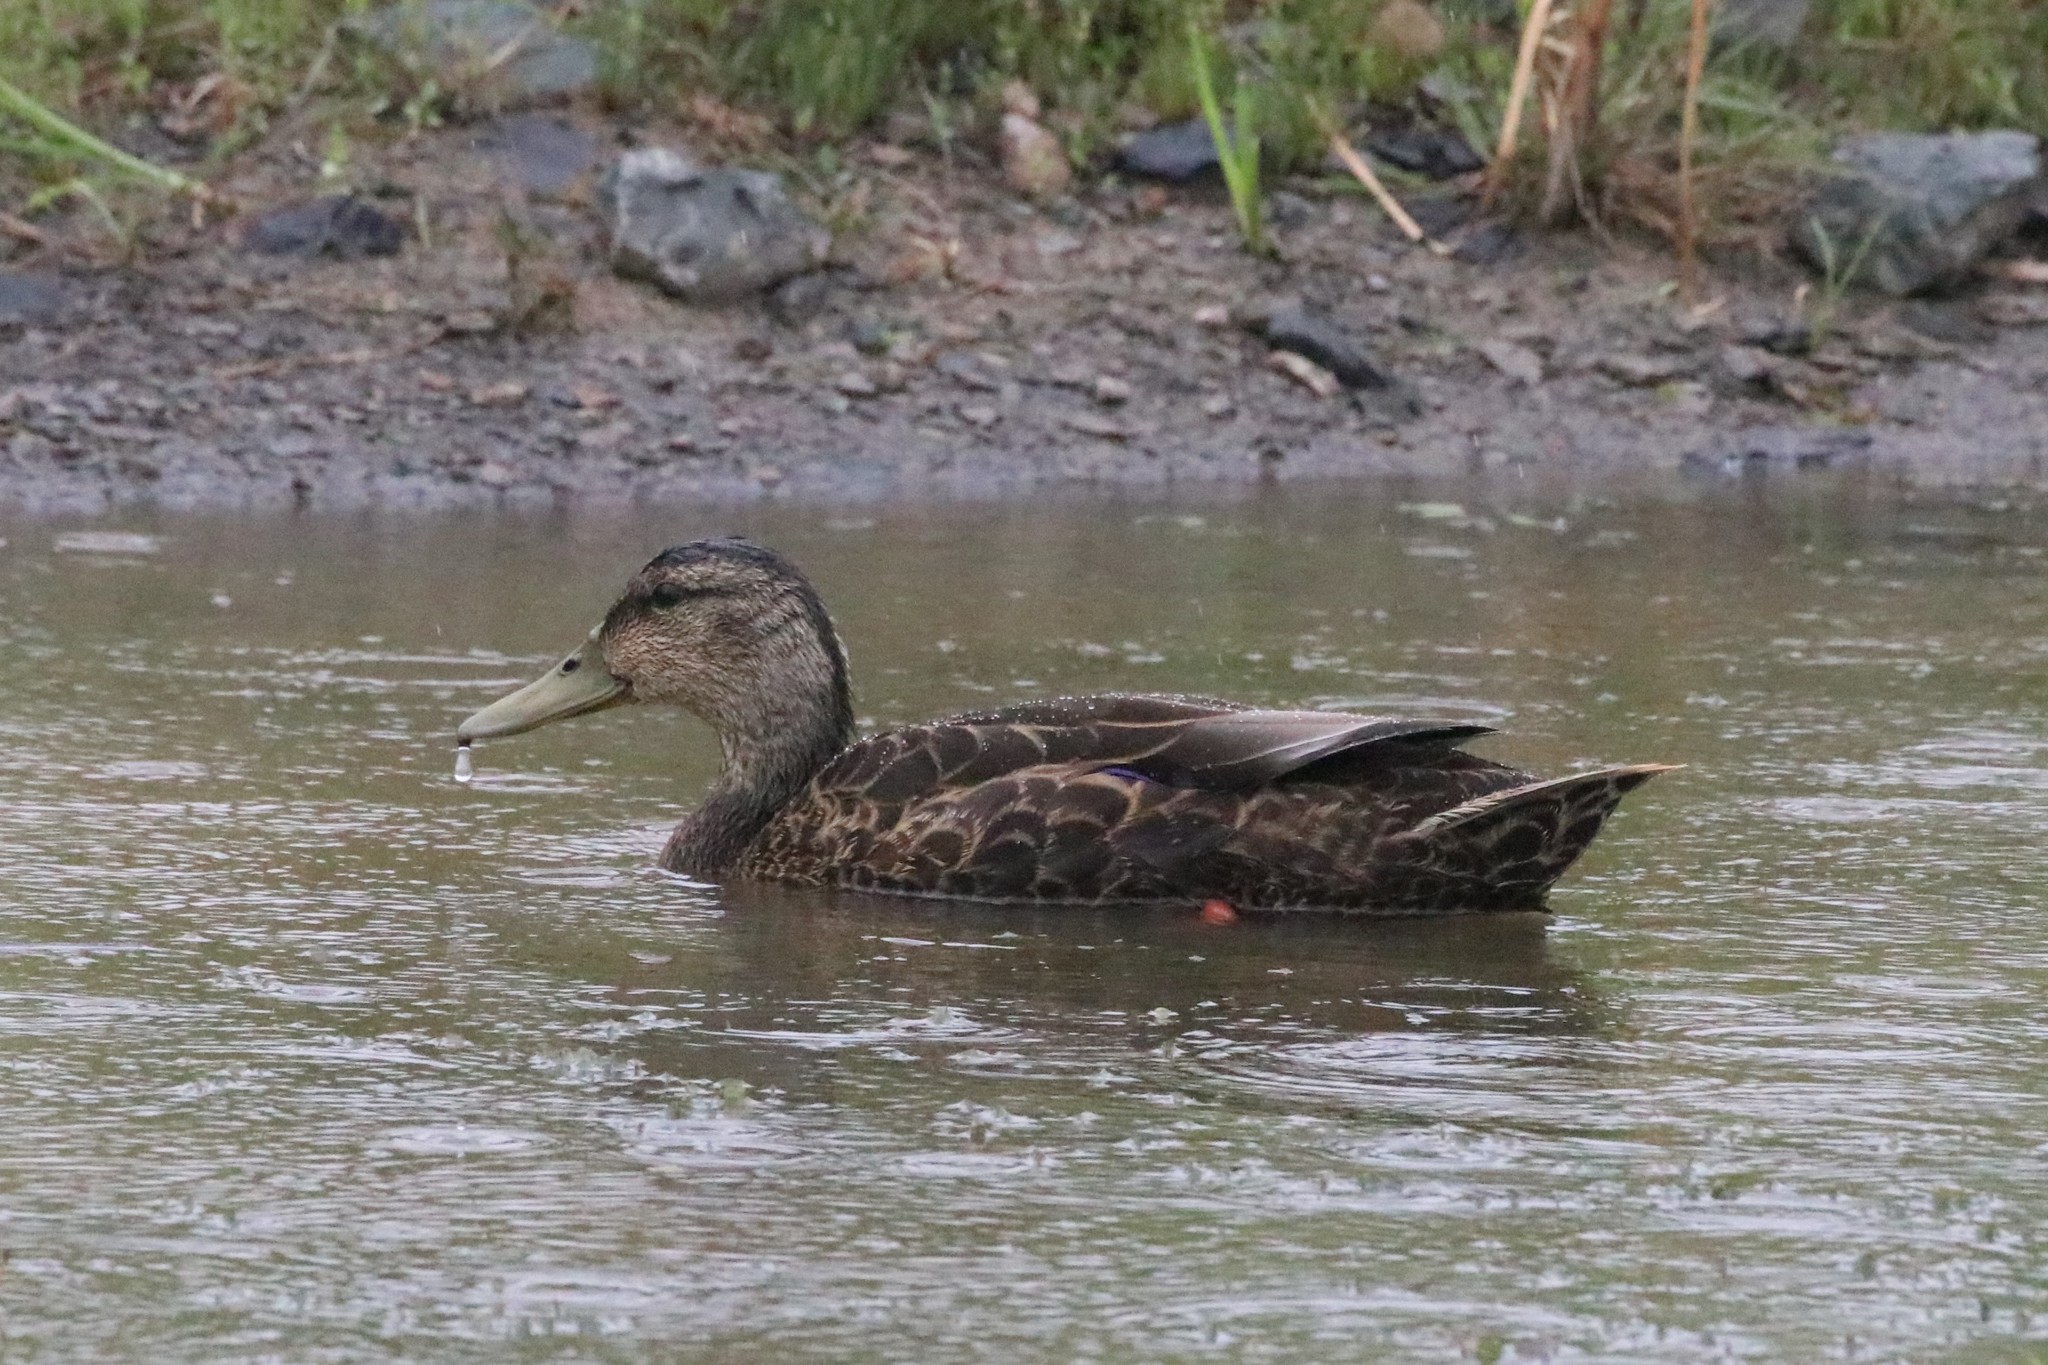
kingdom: Animalia
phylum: Chordata
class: Aves
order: Anseriformes
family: Anatidae
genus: Anas
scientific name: Anas rubripes
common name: American black duck
